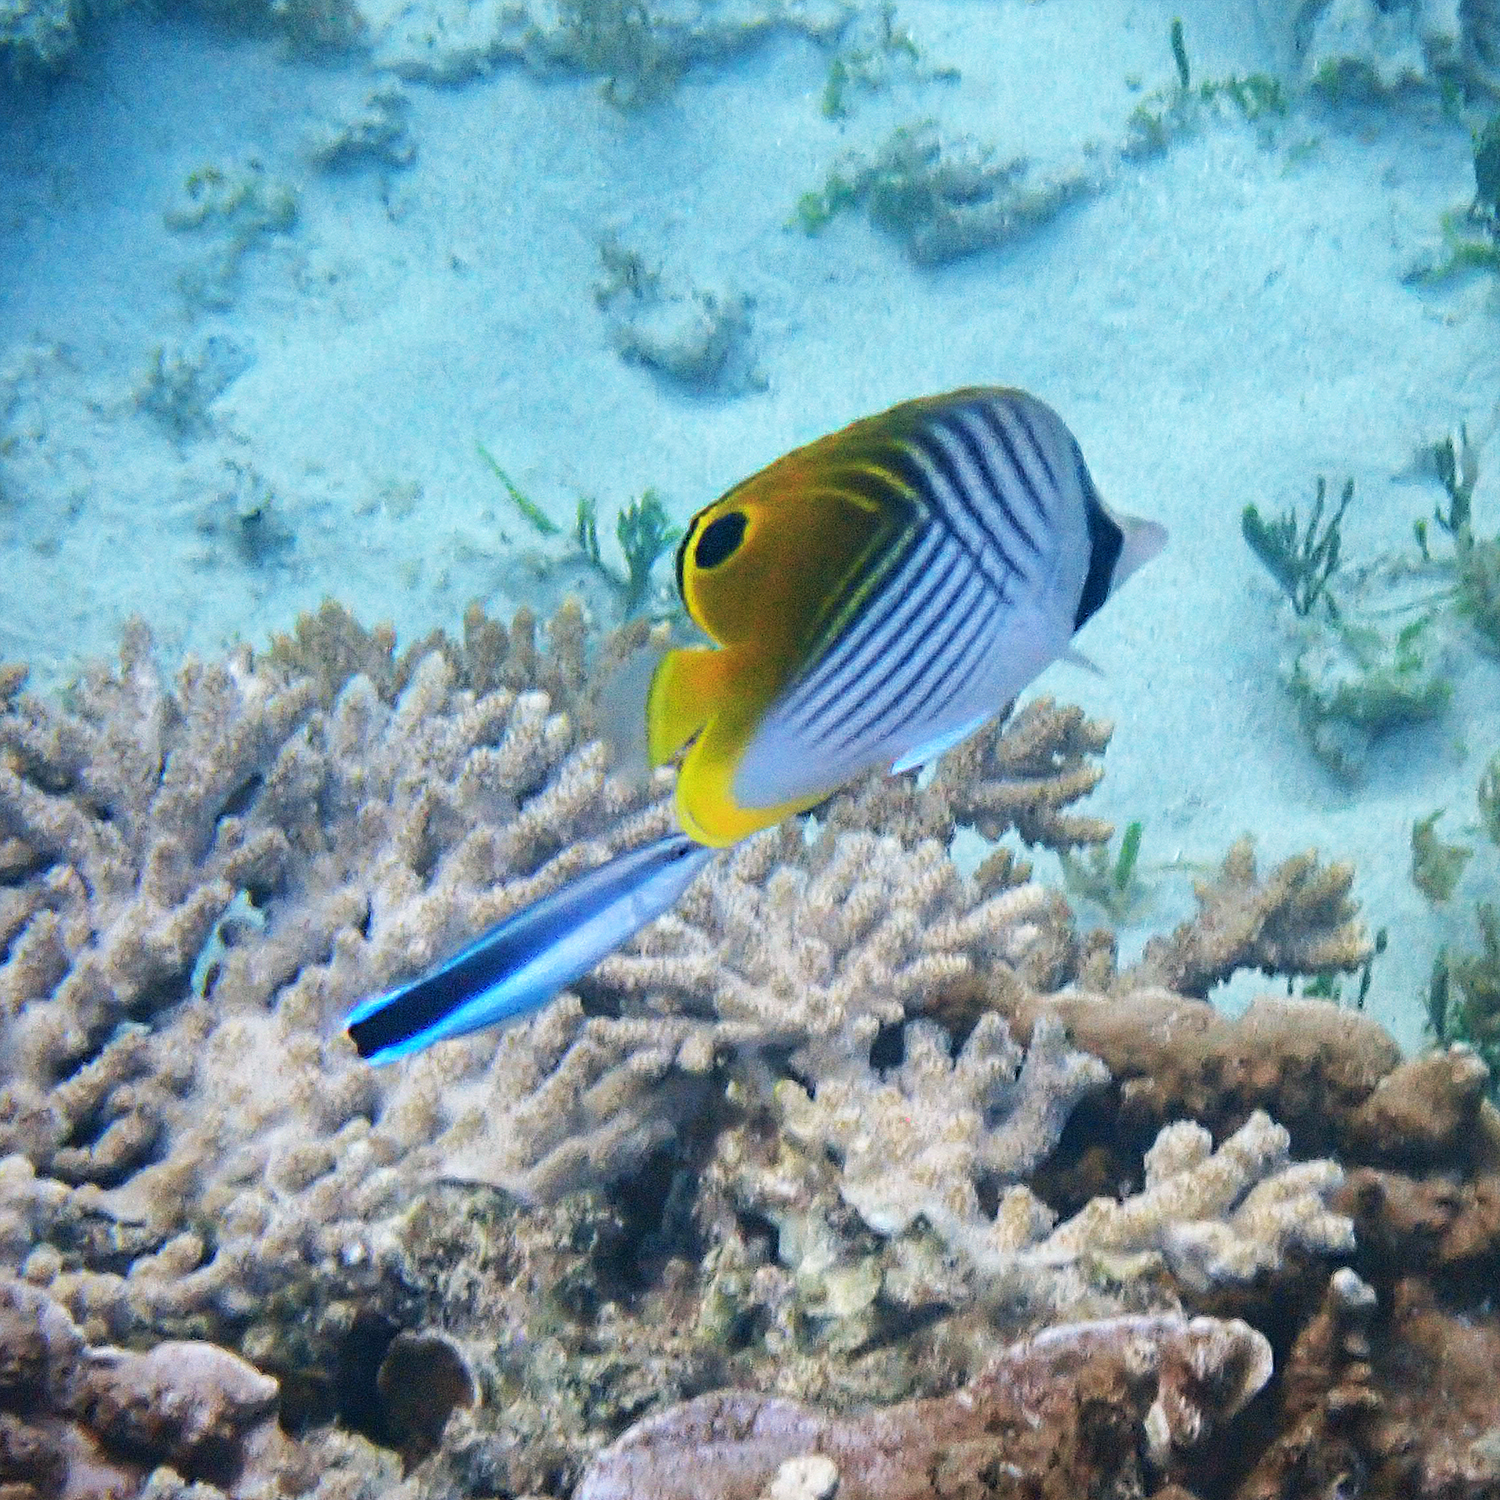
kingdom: Animalia
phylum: Chordata
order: Perciformes
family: Labridae
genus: Labroides
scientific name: Labroides dimidiatus
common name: Blue diesel wrasse
